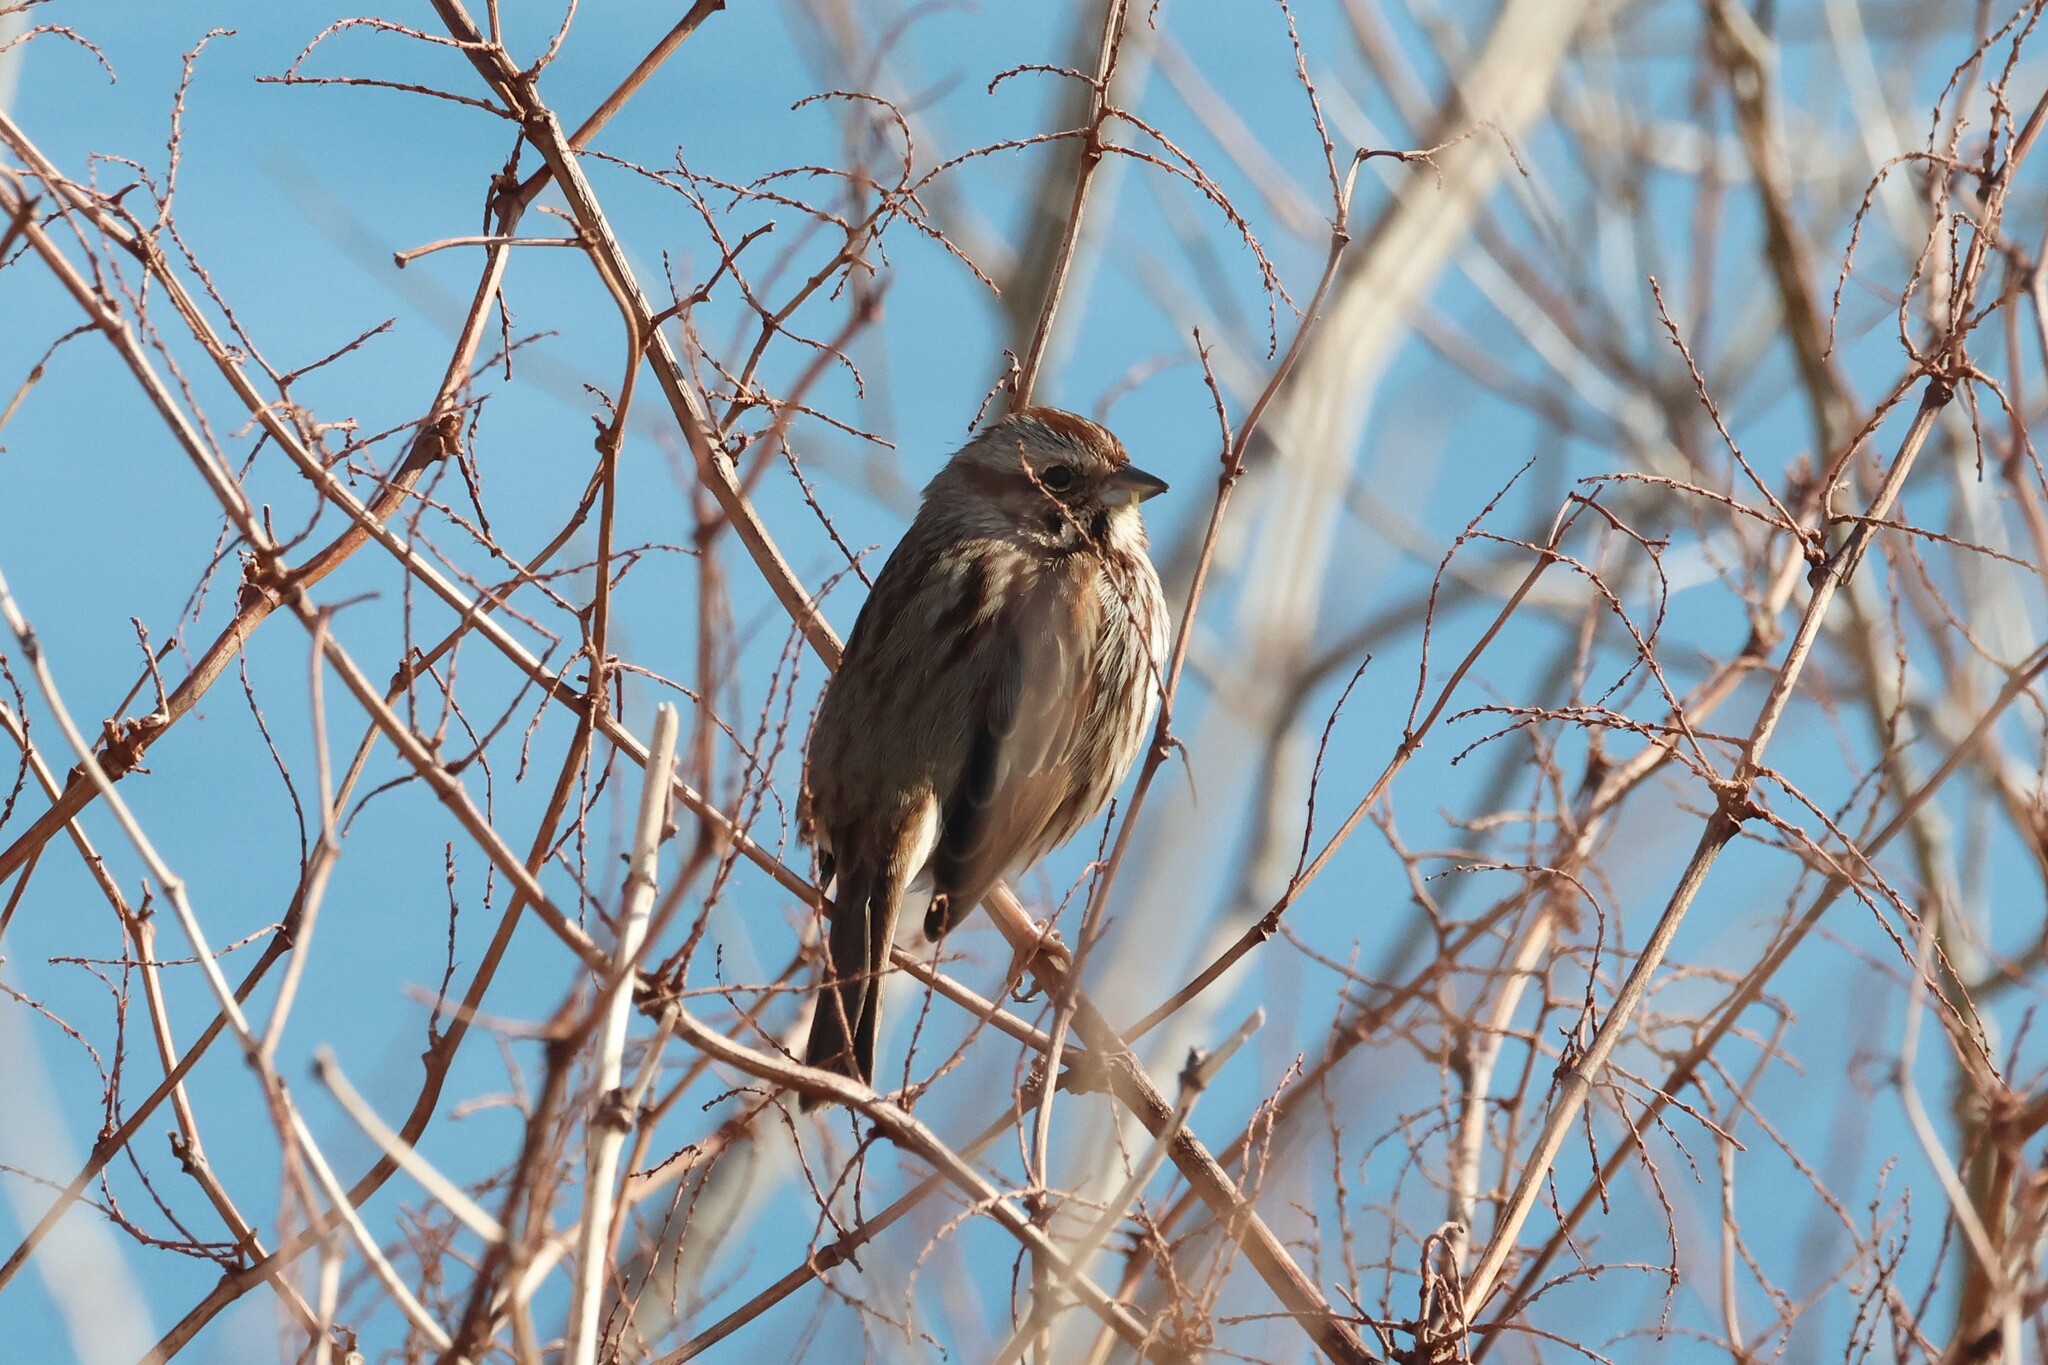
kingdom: Animalia
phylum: Chordata
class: Aves
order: Passeriformes
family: Passerellidae
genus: Melospiza
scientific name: Melospiza melodia
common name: Song sparrow
